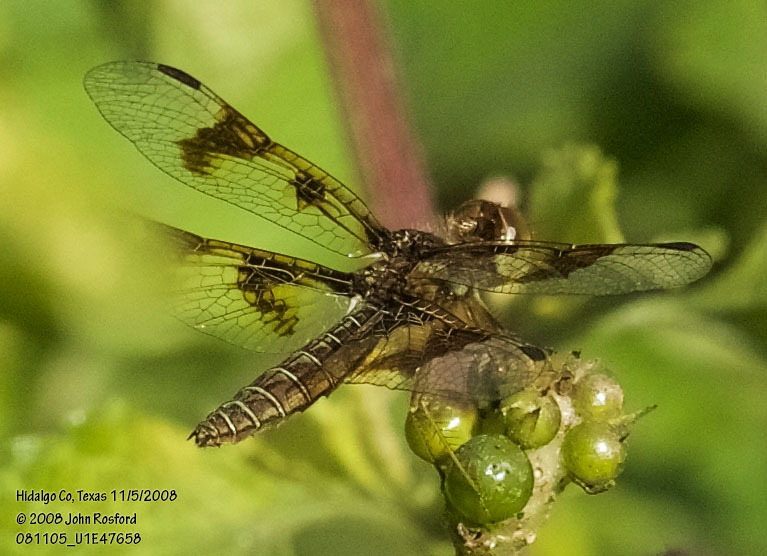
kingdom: Animalia
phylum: Arthropoda
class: Insecta
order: Odonata
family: Libellulidae
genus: Perithemis
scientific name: Perithemis tenera
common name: Eastern amberwing
